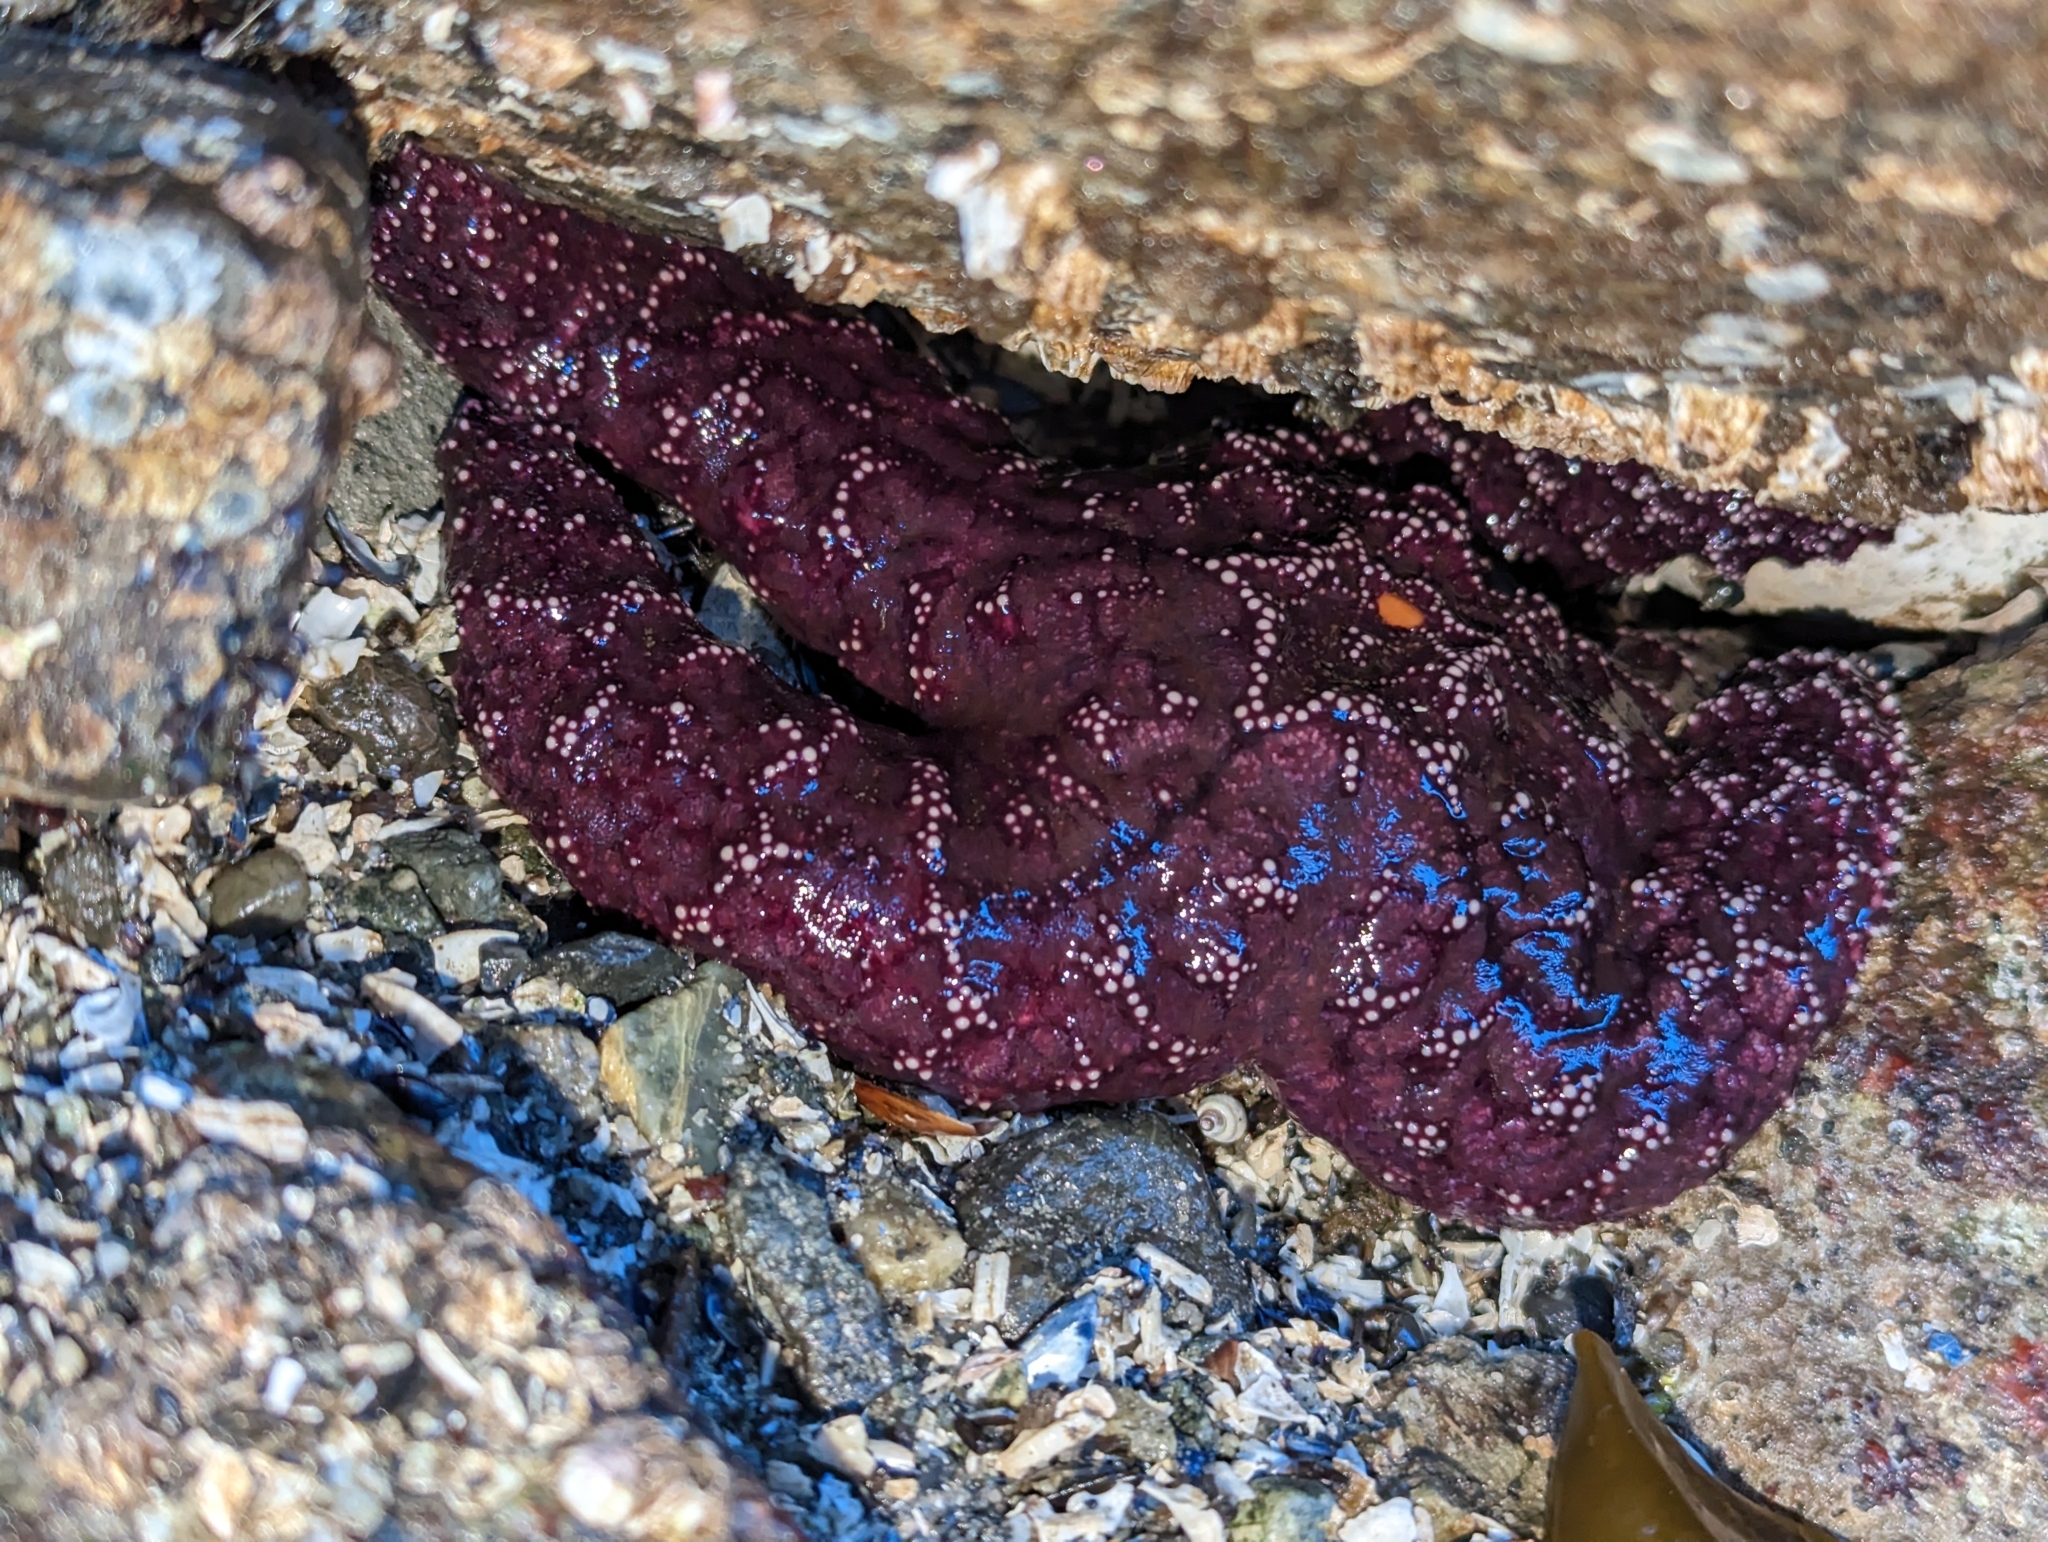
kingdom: Animalia
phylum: Echinodermata
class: Asteroidea
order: Forcipulatida
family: Asteriidae
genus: Pisaster
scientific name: Pisaster ochraceus
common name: Ochre stars
